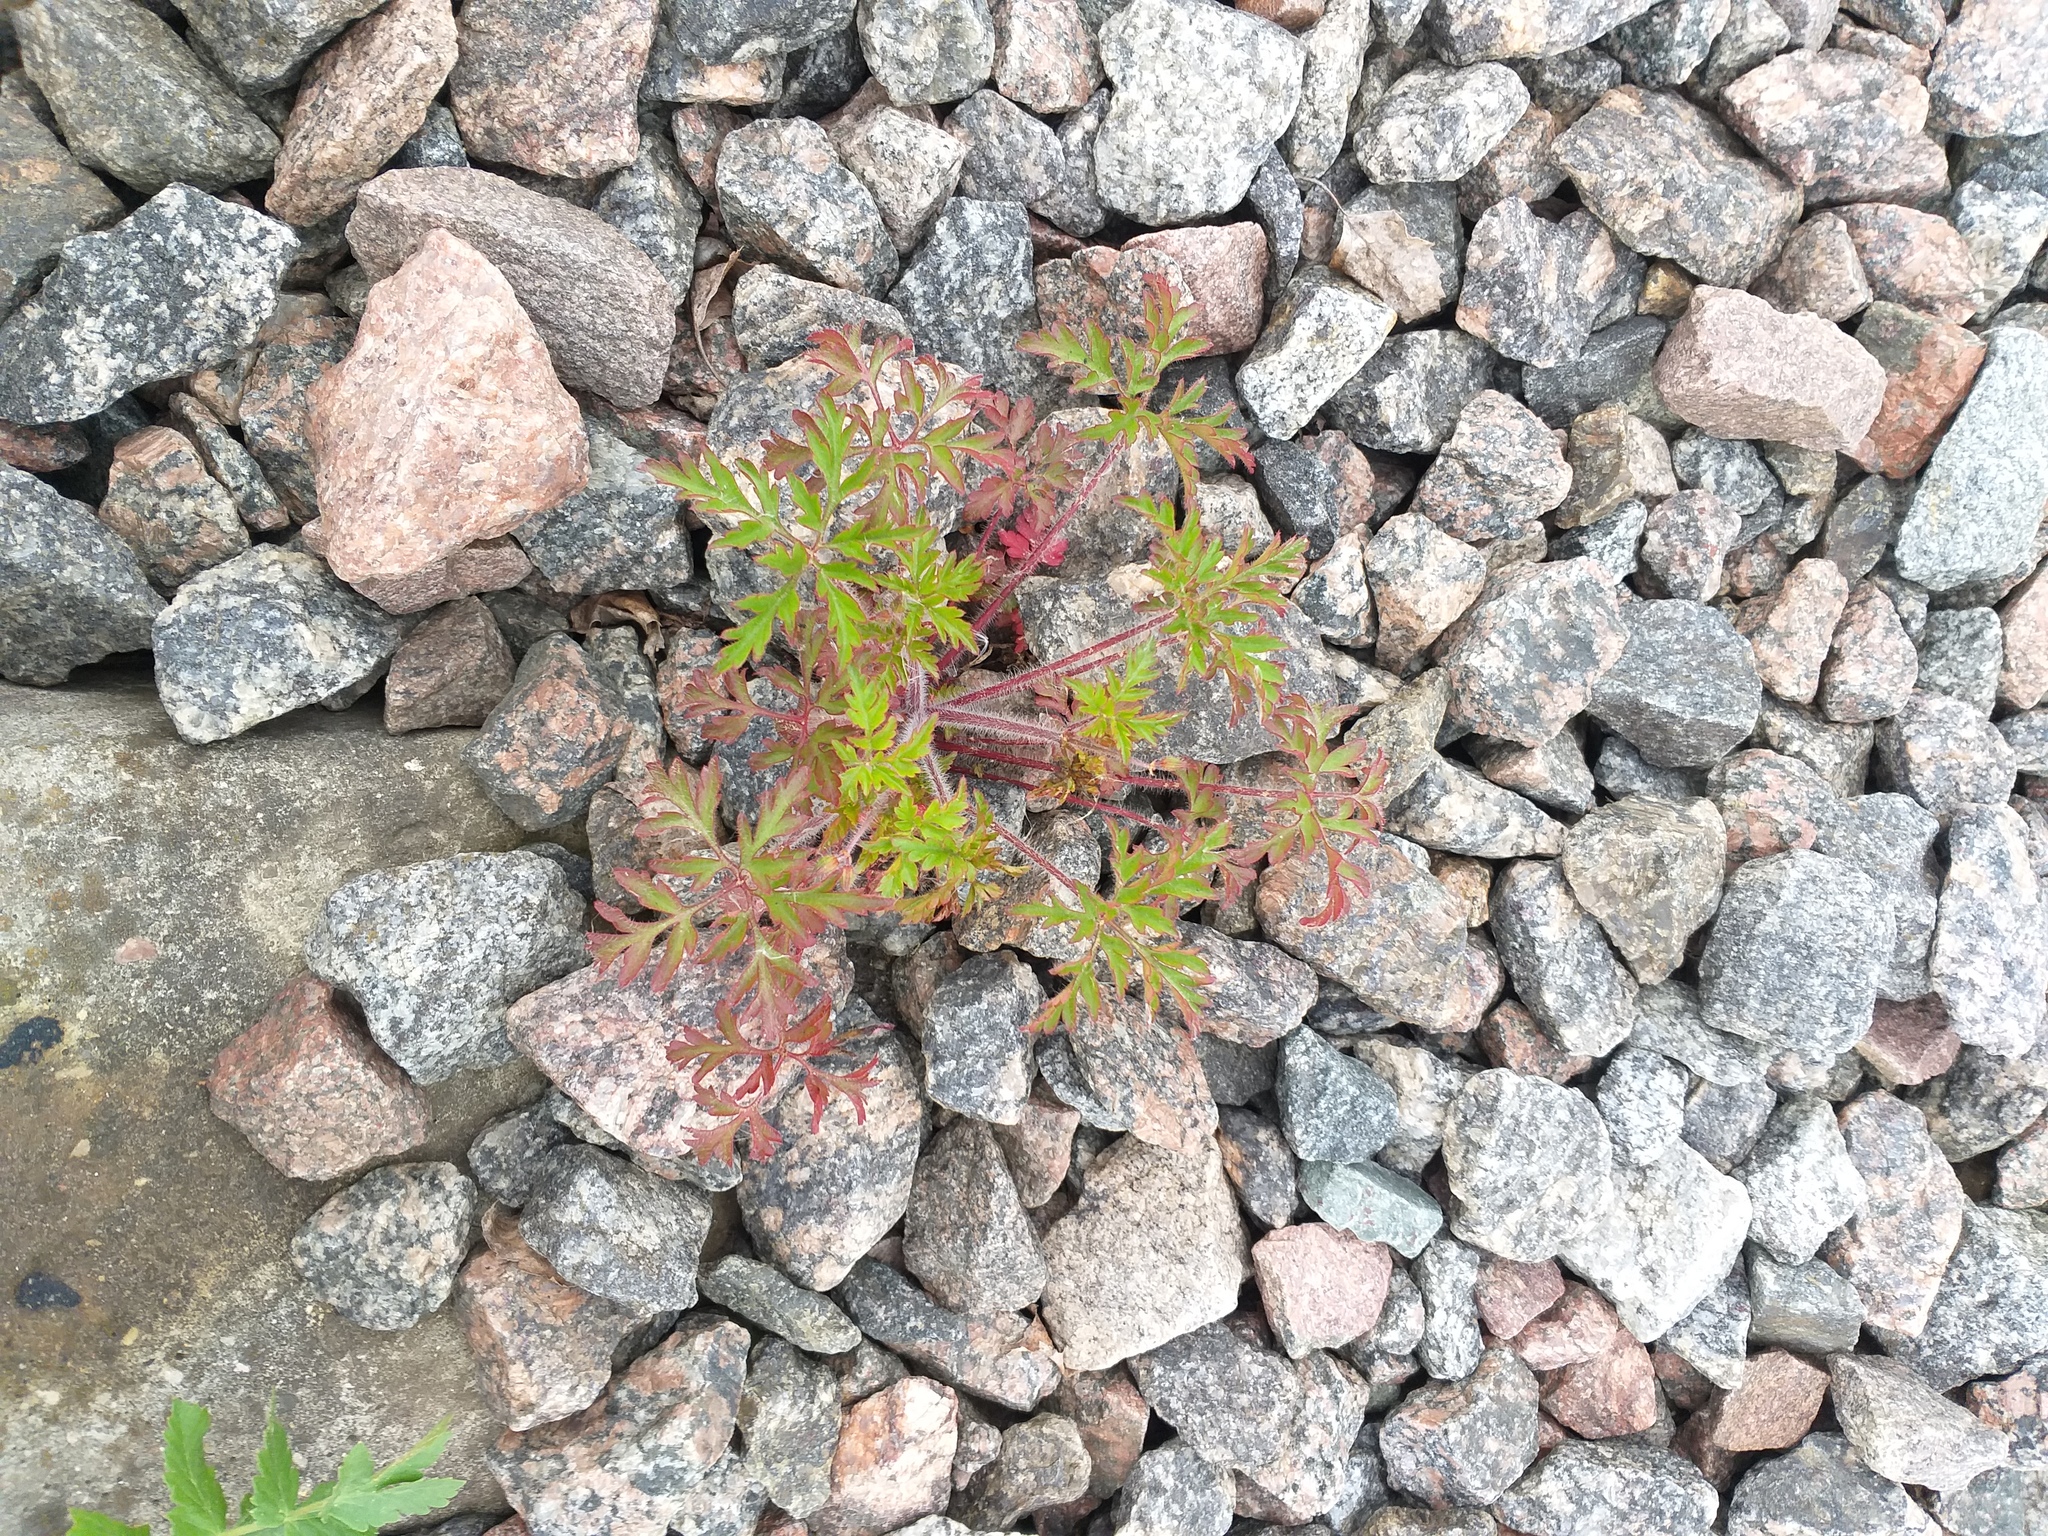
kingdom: Plantae
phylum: Tracheophyta
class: Magnoliopsida
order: Geraniales
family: Geraniaceae
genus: Geranium
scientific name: Geranium robertianum
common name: Herb-robert
